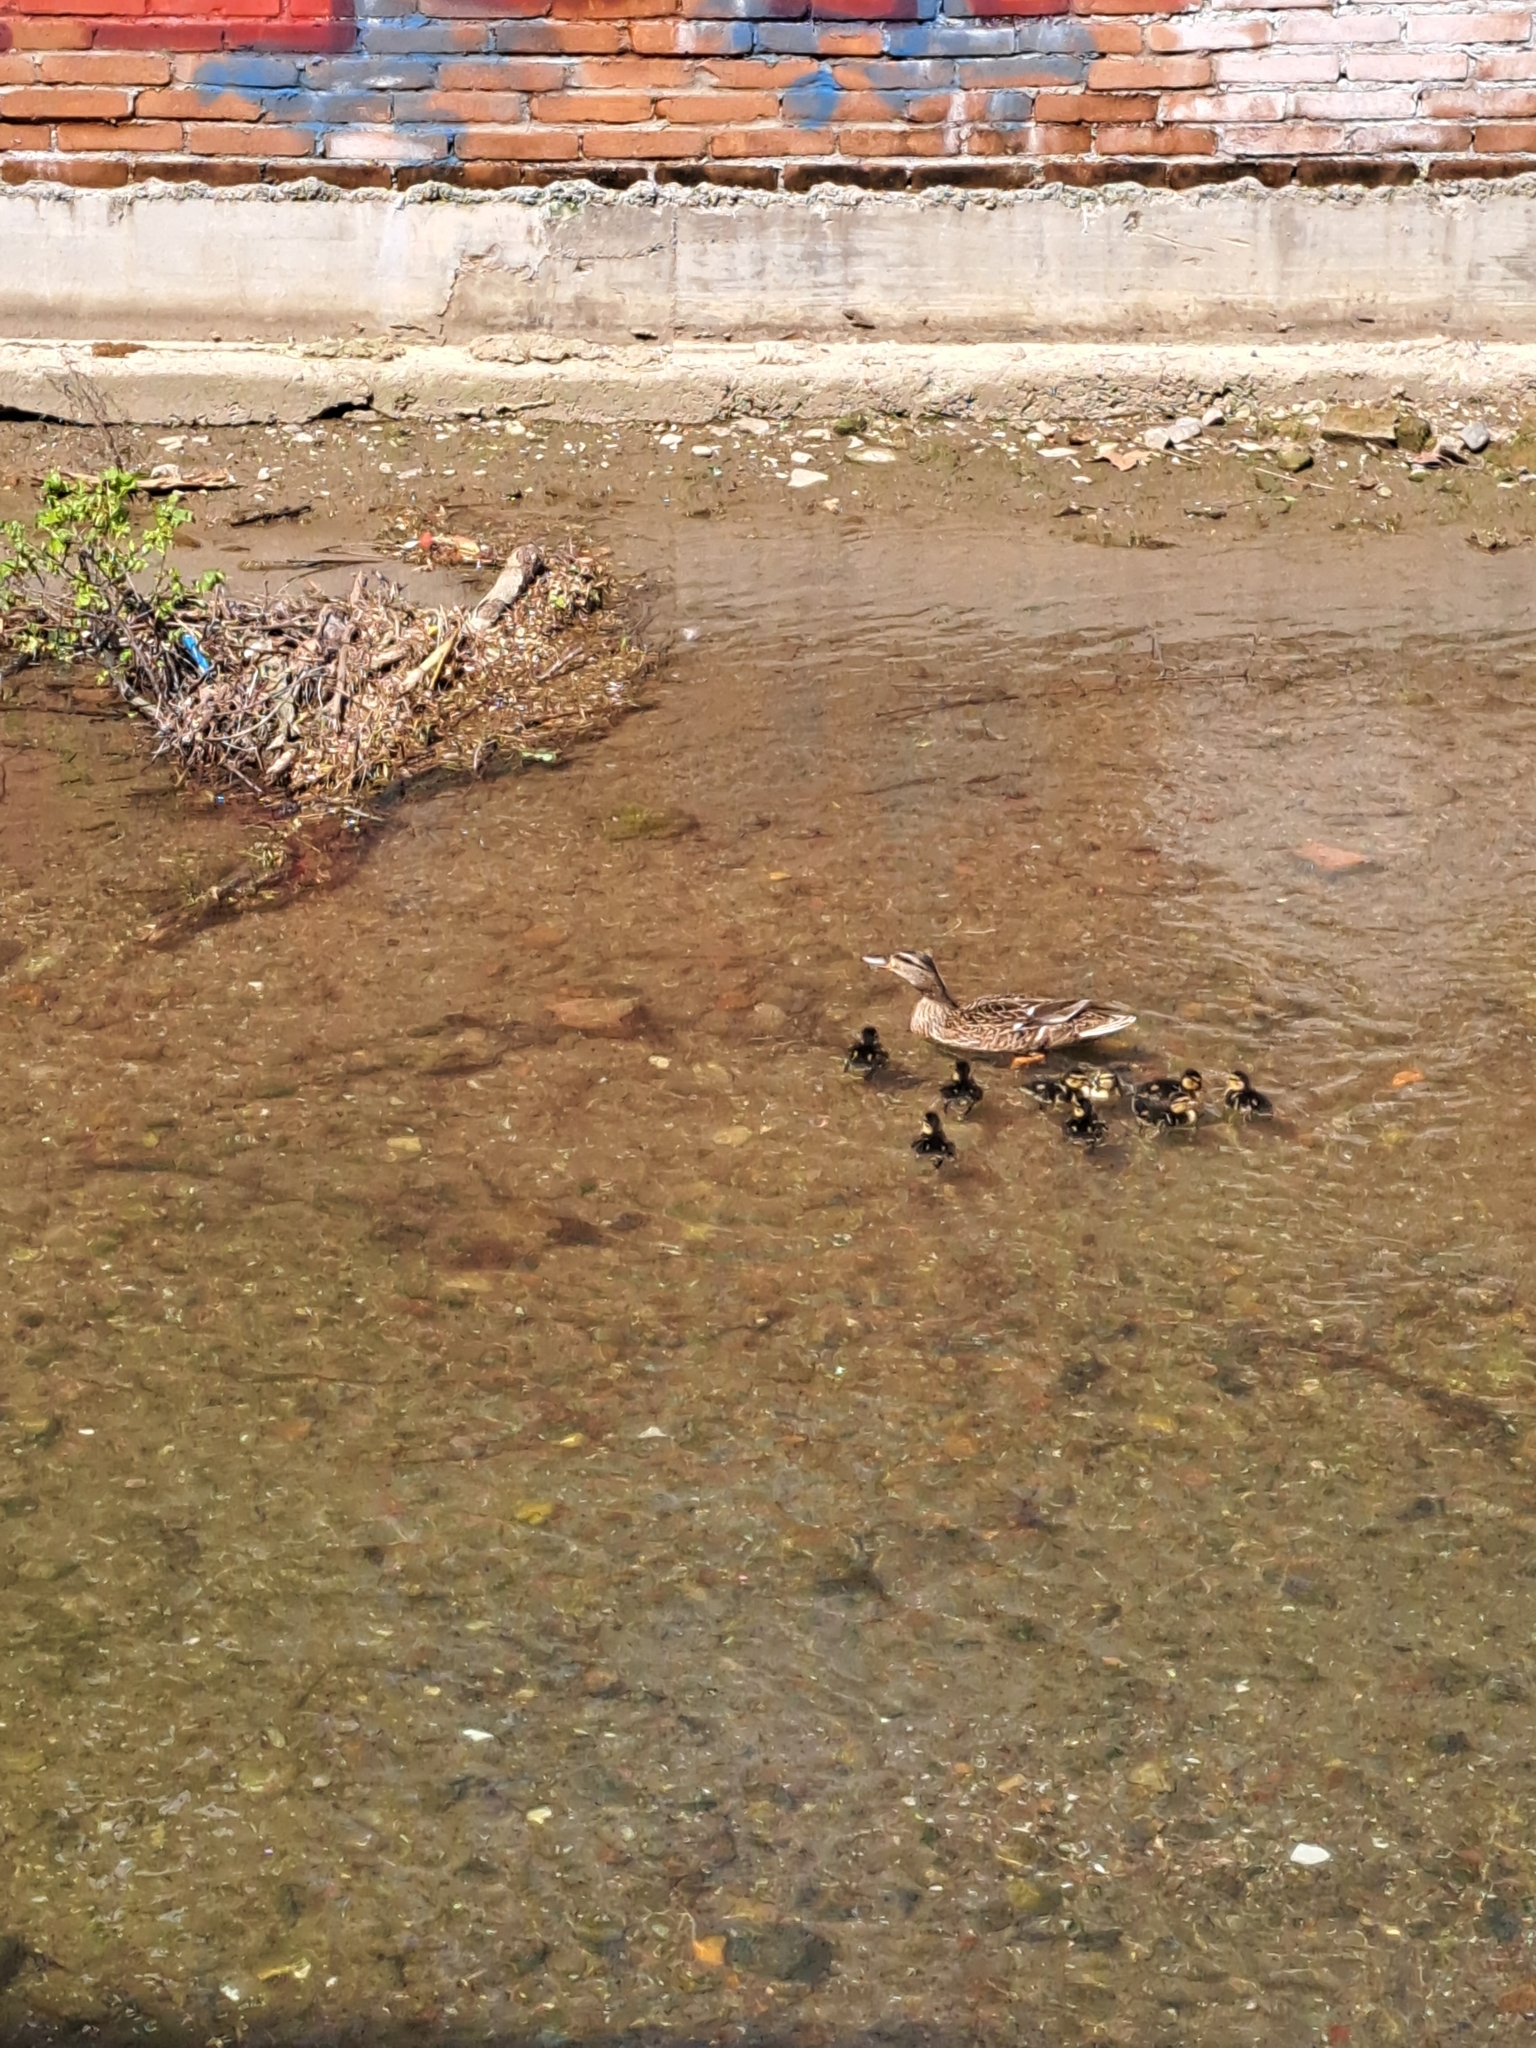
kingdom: Animalia
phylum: Chordata
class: Aves
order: Anseriformes
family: Anatidae
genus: Anas
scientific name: Anas platyrhynchos
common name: Mallard
